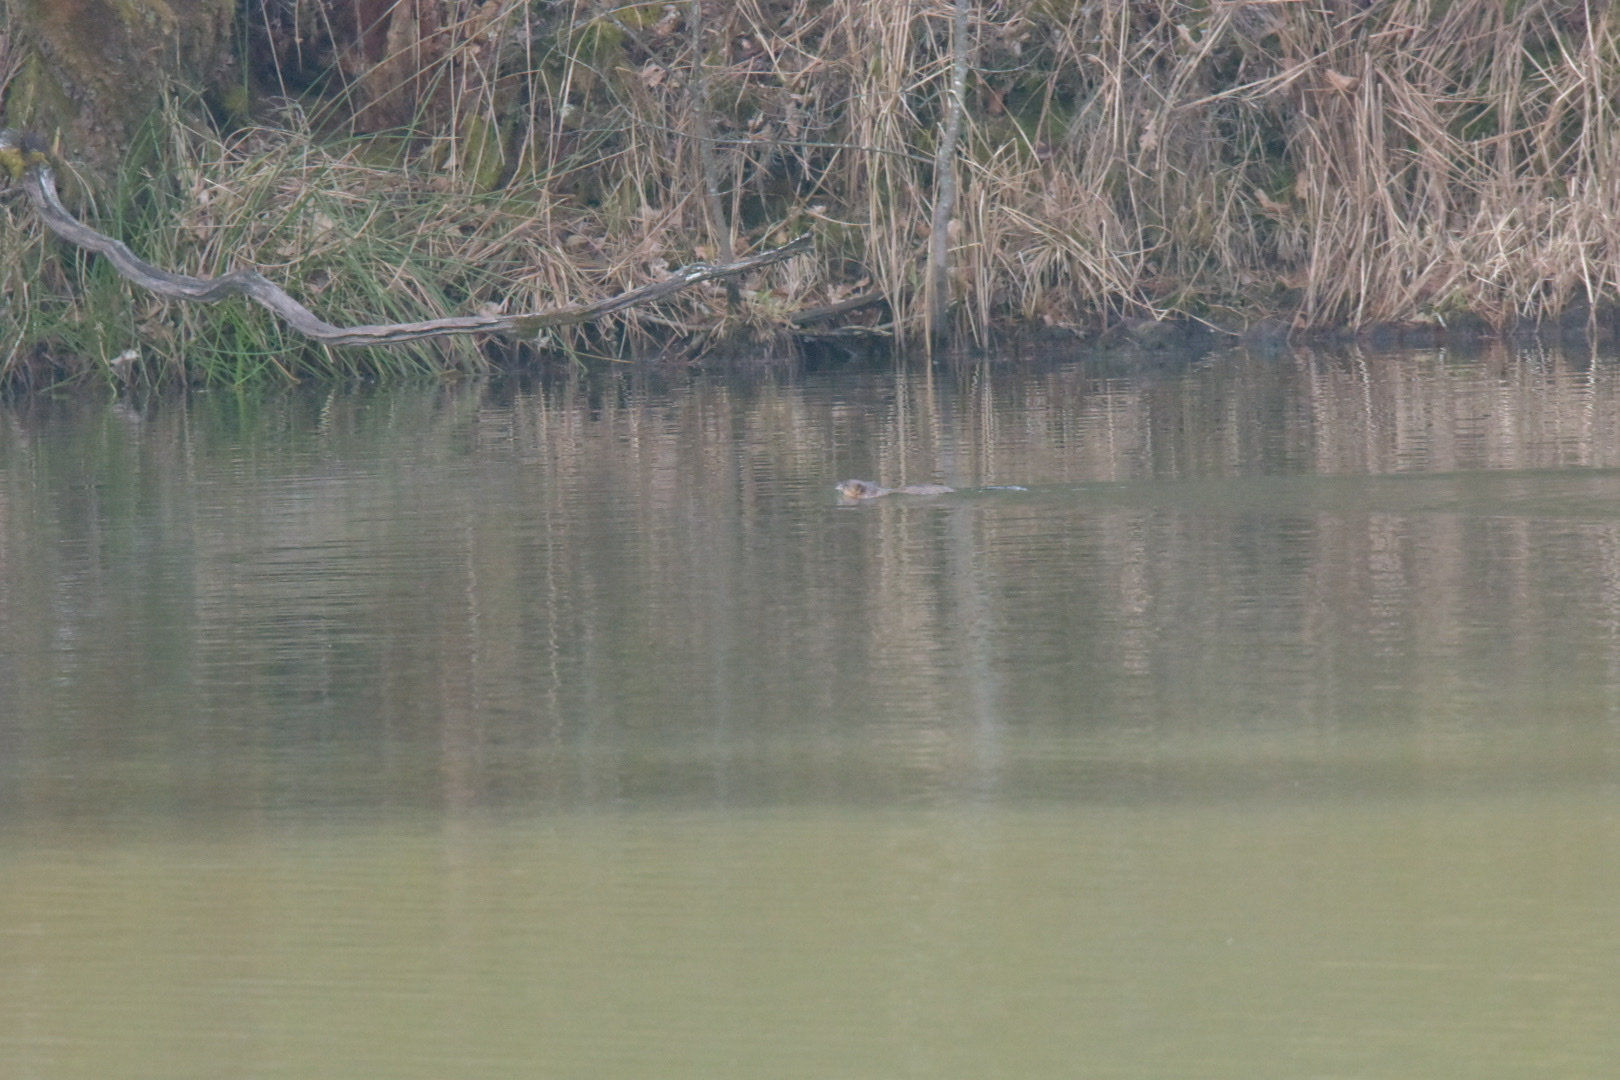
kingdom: Animalia
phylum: Chordata
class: Mammalia
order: Rodentia
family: Cricetidae
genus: Ondatra
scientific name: Ondatra zibethicus
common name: Muskrat
